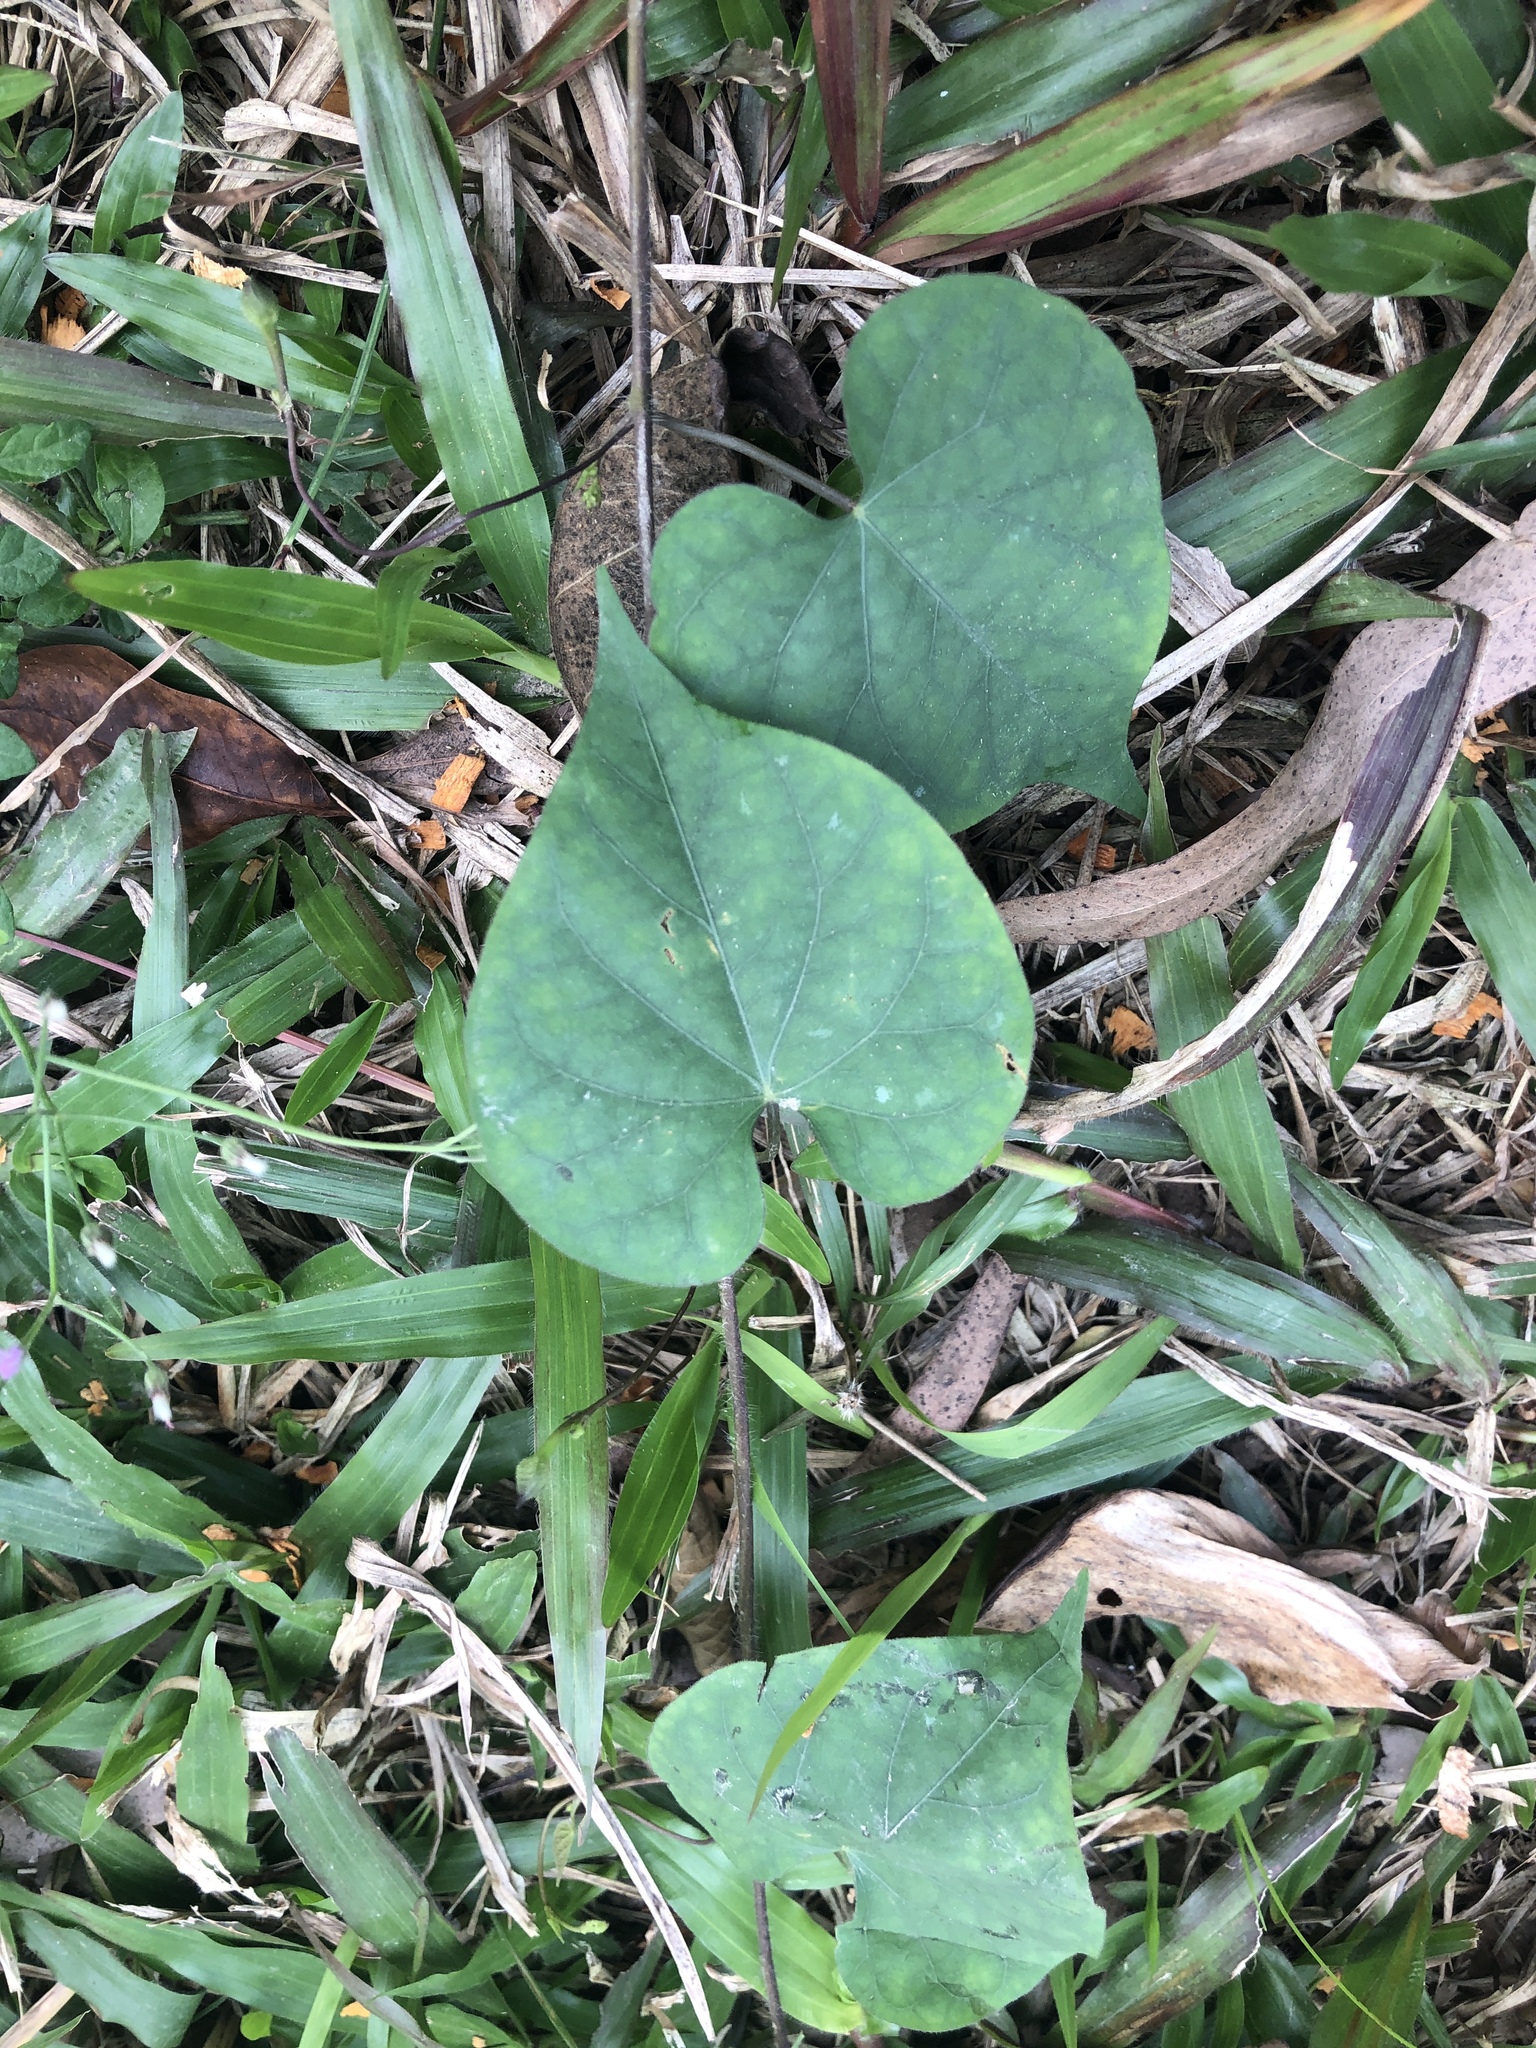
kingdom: Plantae
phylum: Tracheophyta
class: Magnoliopsida
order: Solanales
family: Convolvulaceae
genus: Ipomoea
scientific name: Ipomoea triloba
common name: Little-bell
